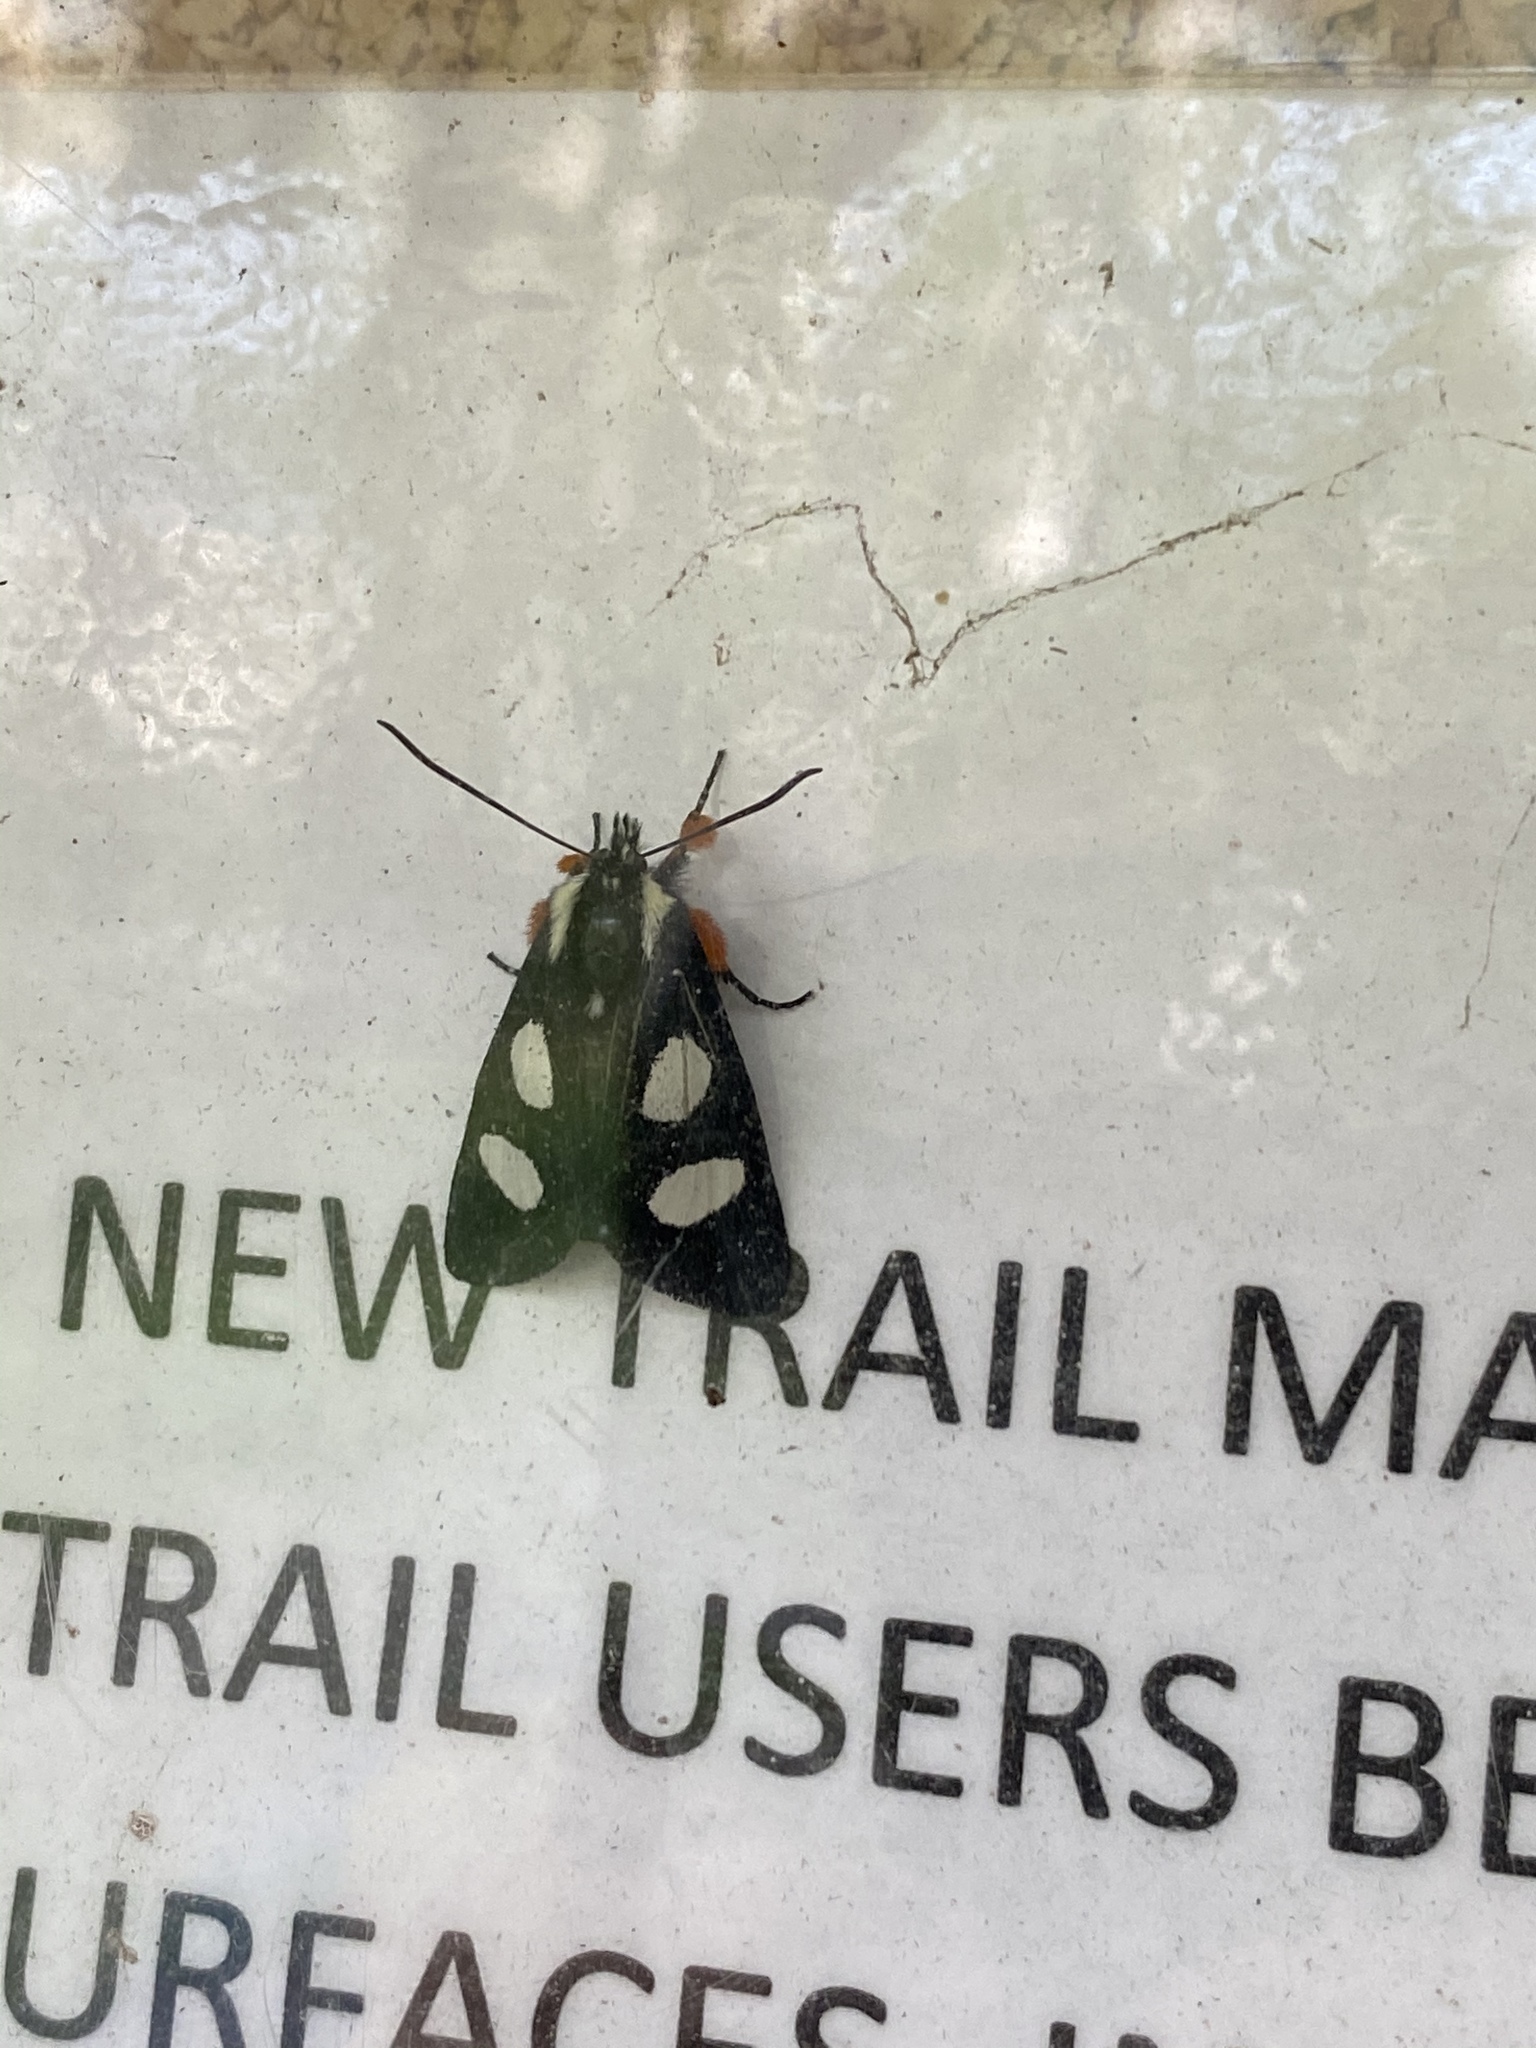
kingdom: Animalia
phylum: Arthropoda
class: Insecta
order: Lepidoptera
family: Noctuidae
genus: Alypia
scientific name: Alypia octomaculata
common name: Eight-spotted forester
